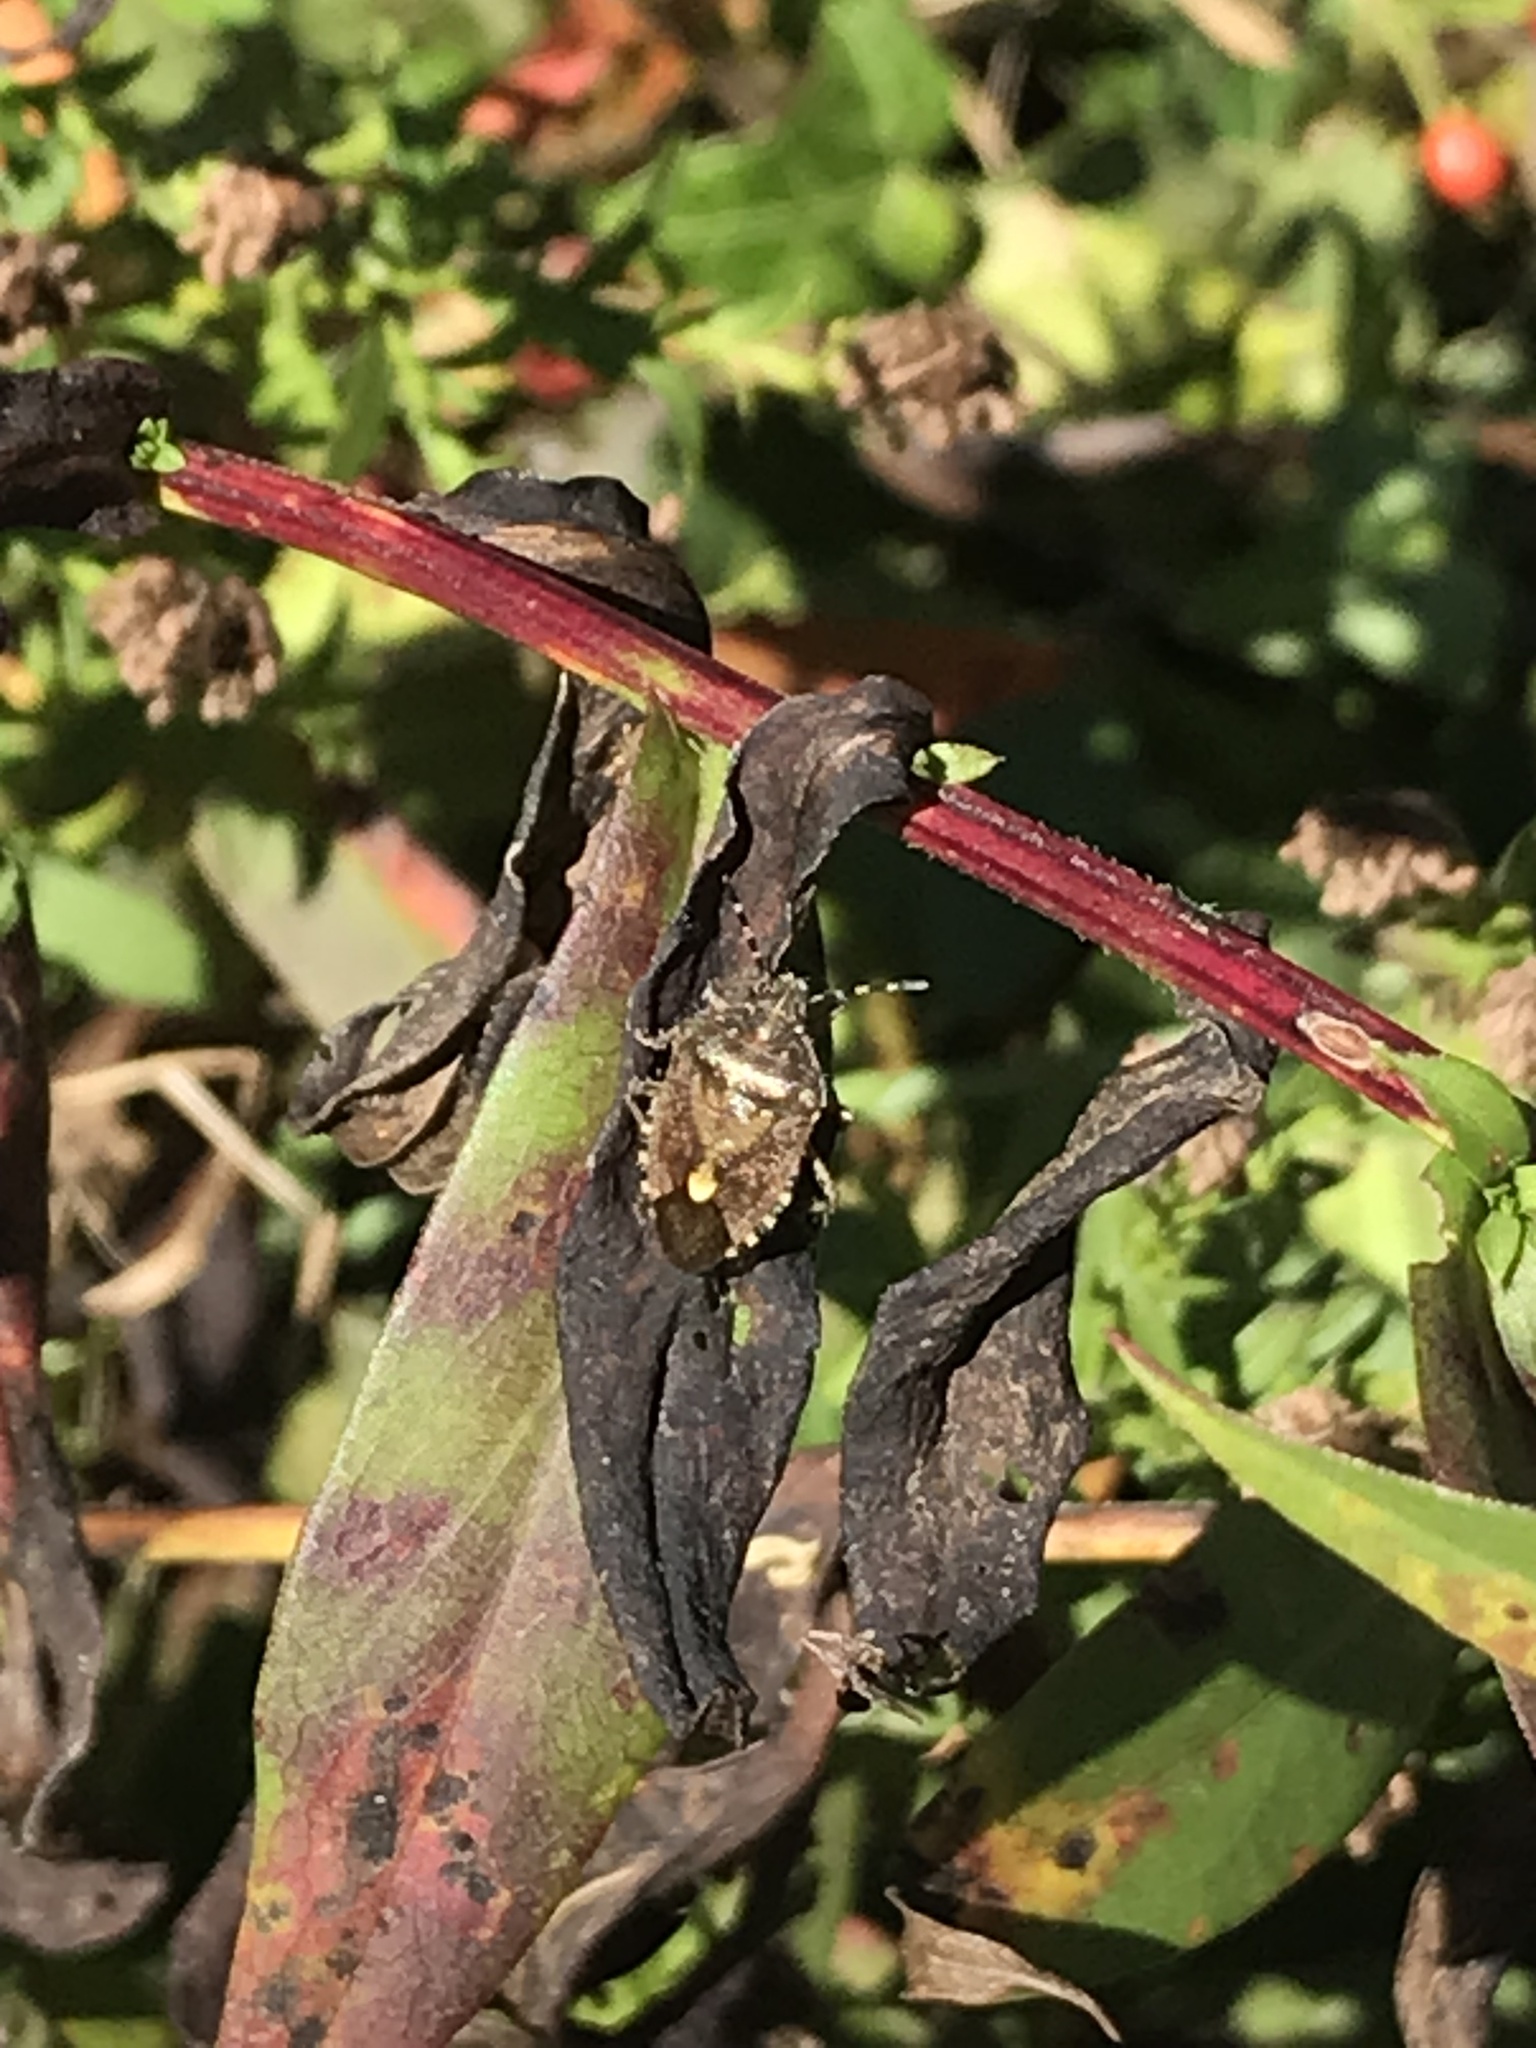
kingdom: Animalia
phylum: Arthropoda
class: Insecta
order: Hemiptera
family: Pentatomidae
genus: Dolycoris
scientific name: Dolycoris baccarum
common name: Sloe bug
